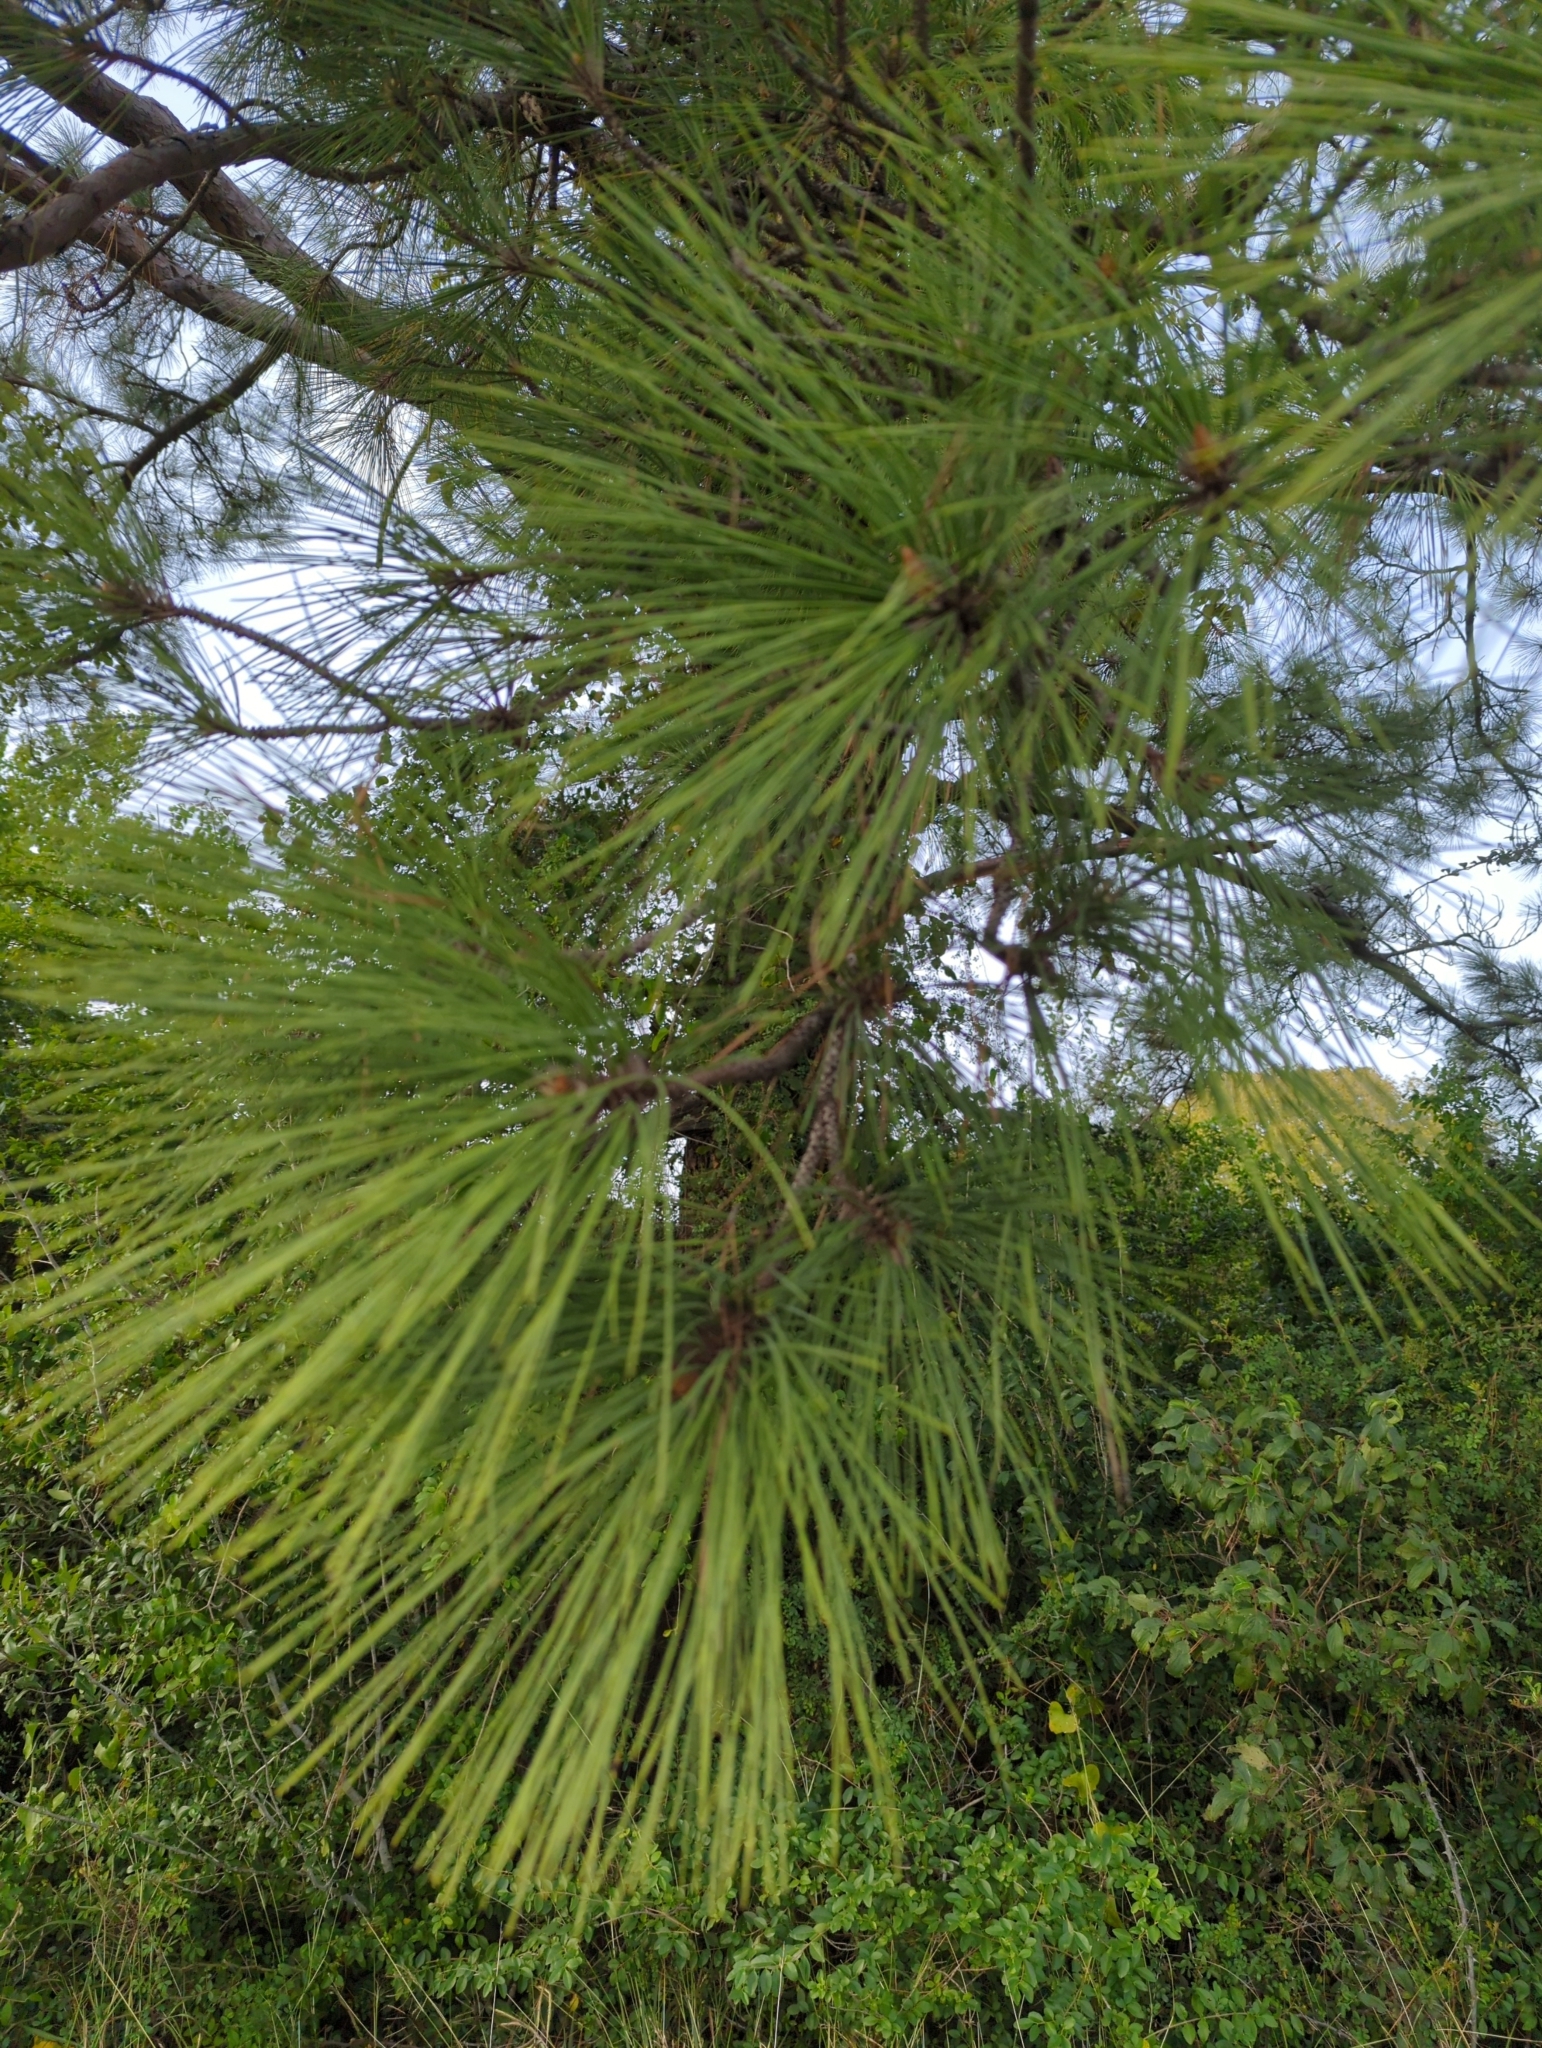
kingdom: Plantae
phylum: Tracheophyta
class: Pinopsida
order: Pinales
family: Pinaceae
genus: Pinus
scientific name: Pinus taeda
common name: Loblolly pine
